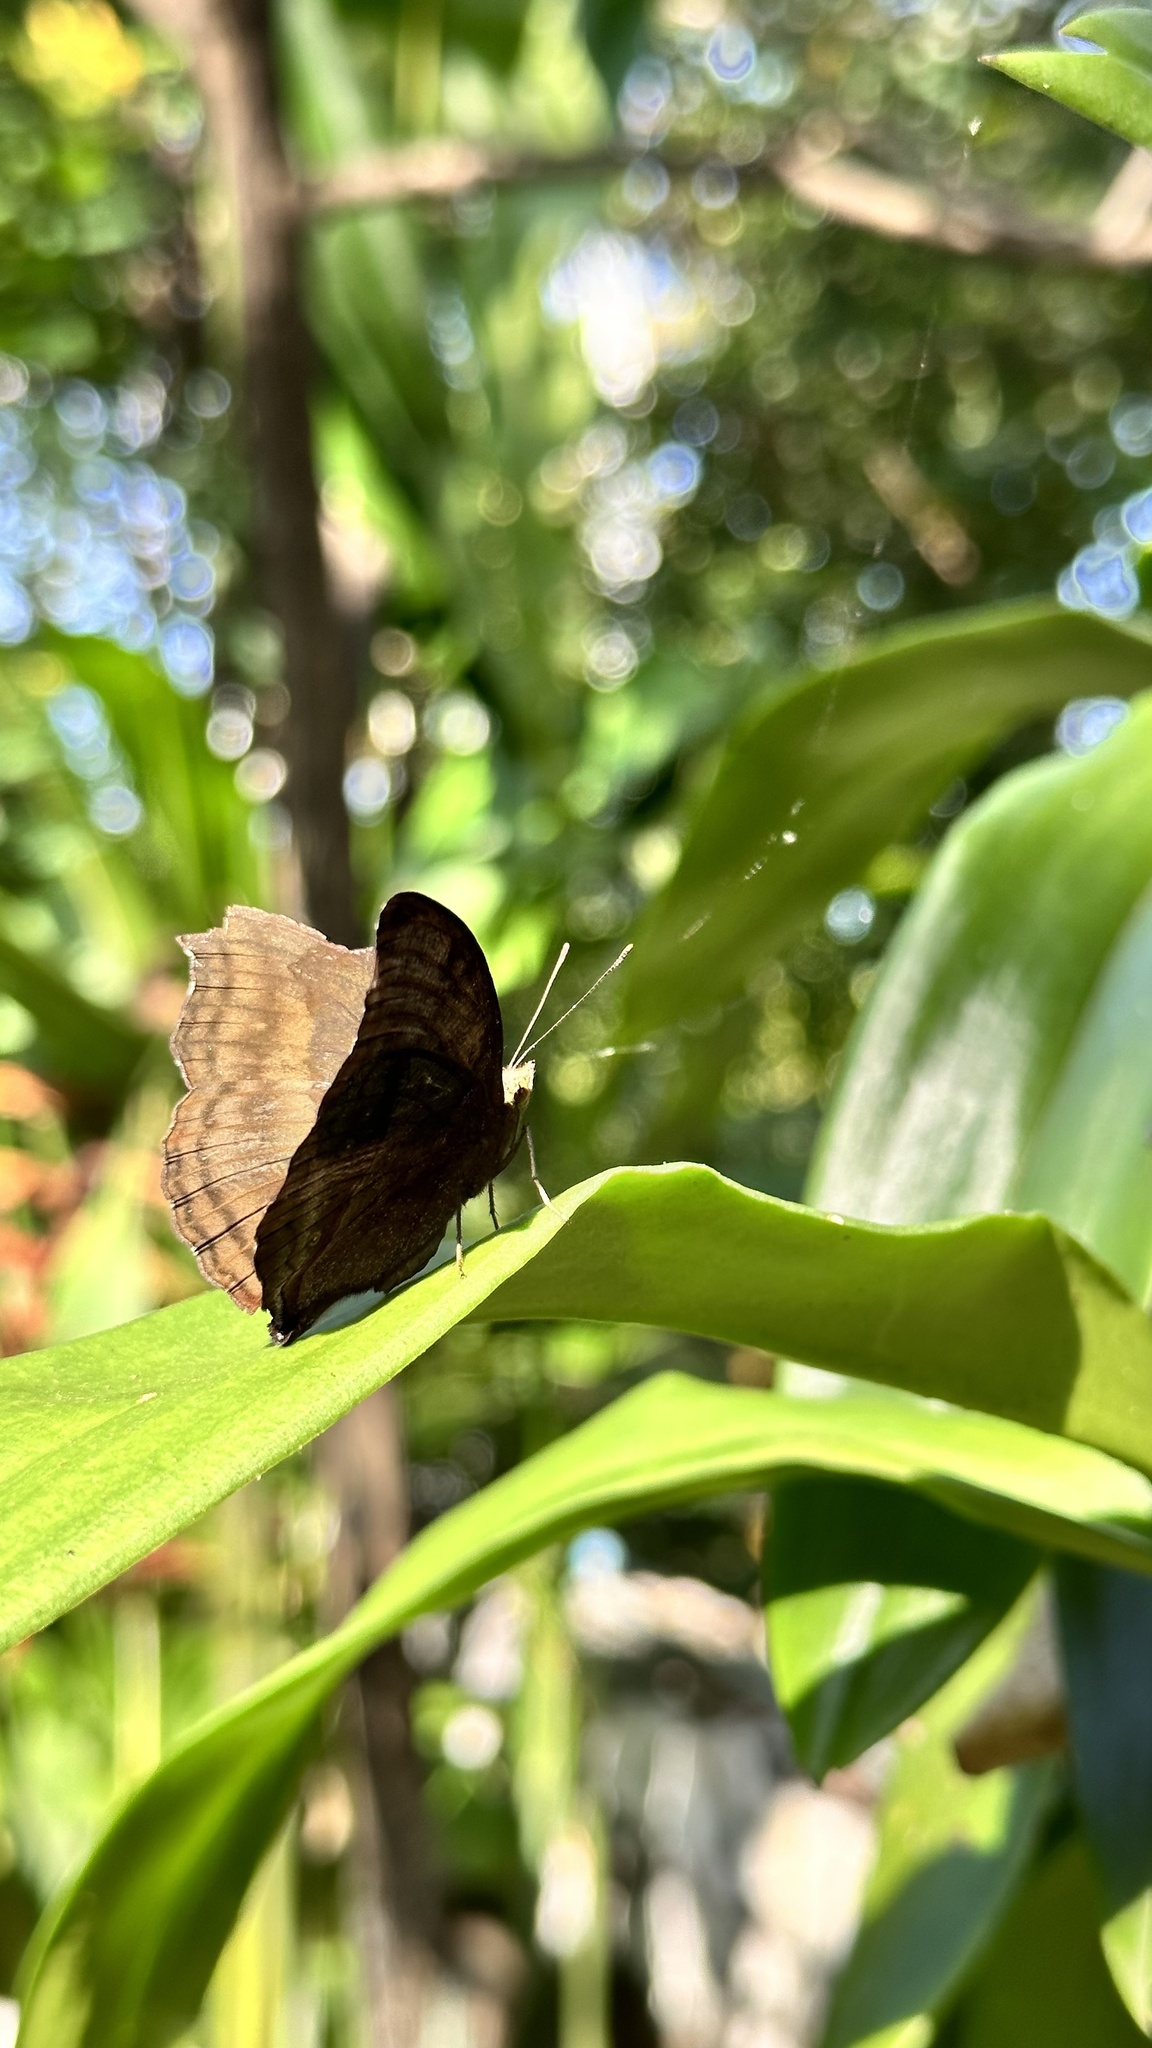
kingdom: Animalia
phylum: Arthropoda
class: Insecta
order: Lepidoptera
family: Nymphalidae
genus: Junonia
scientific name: Junonia iphita
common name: Chocolate pansy
